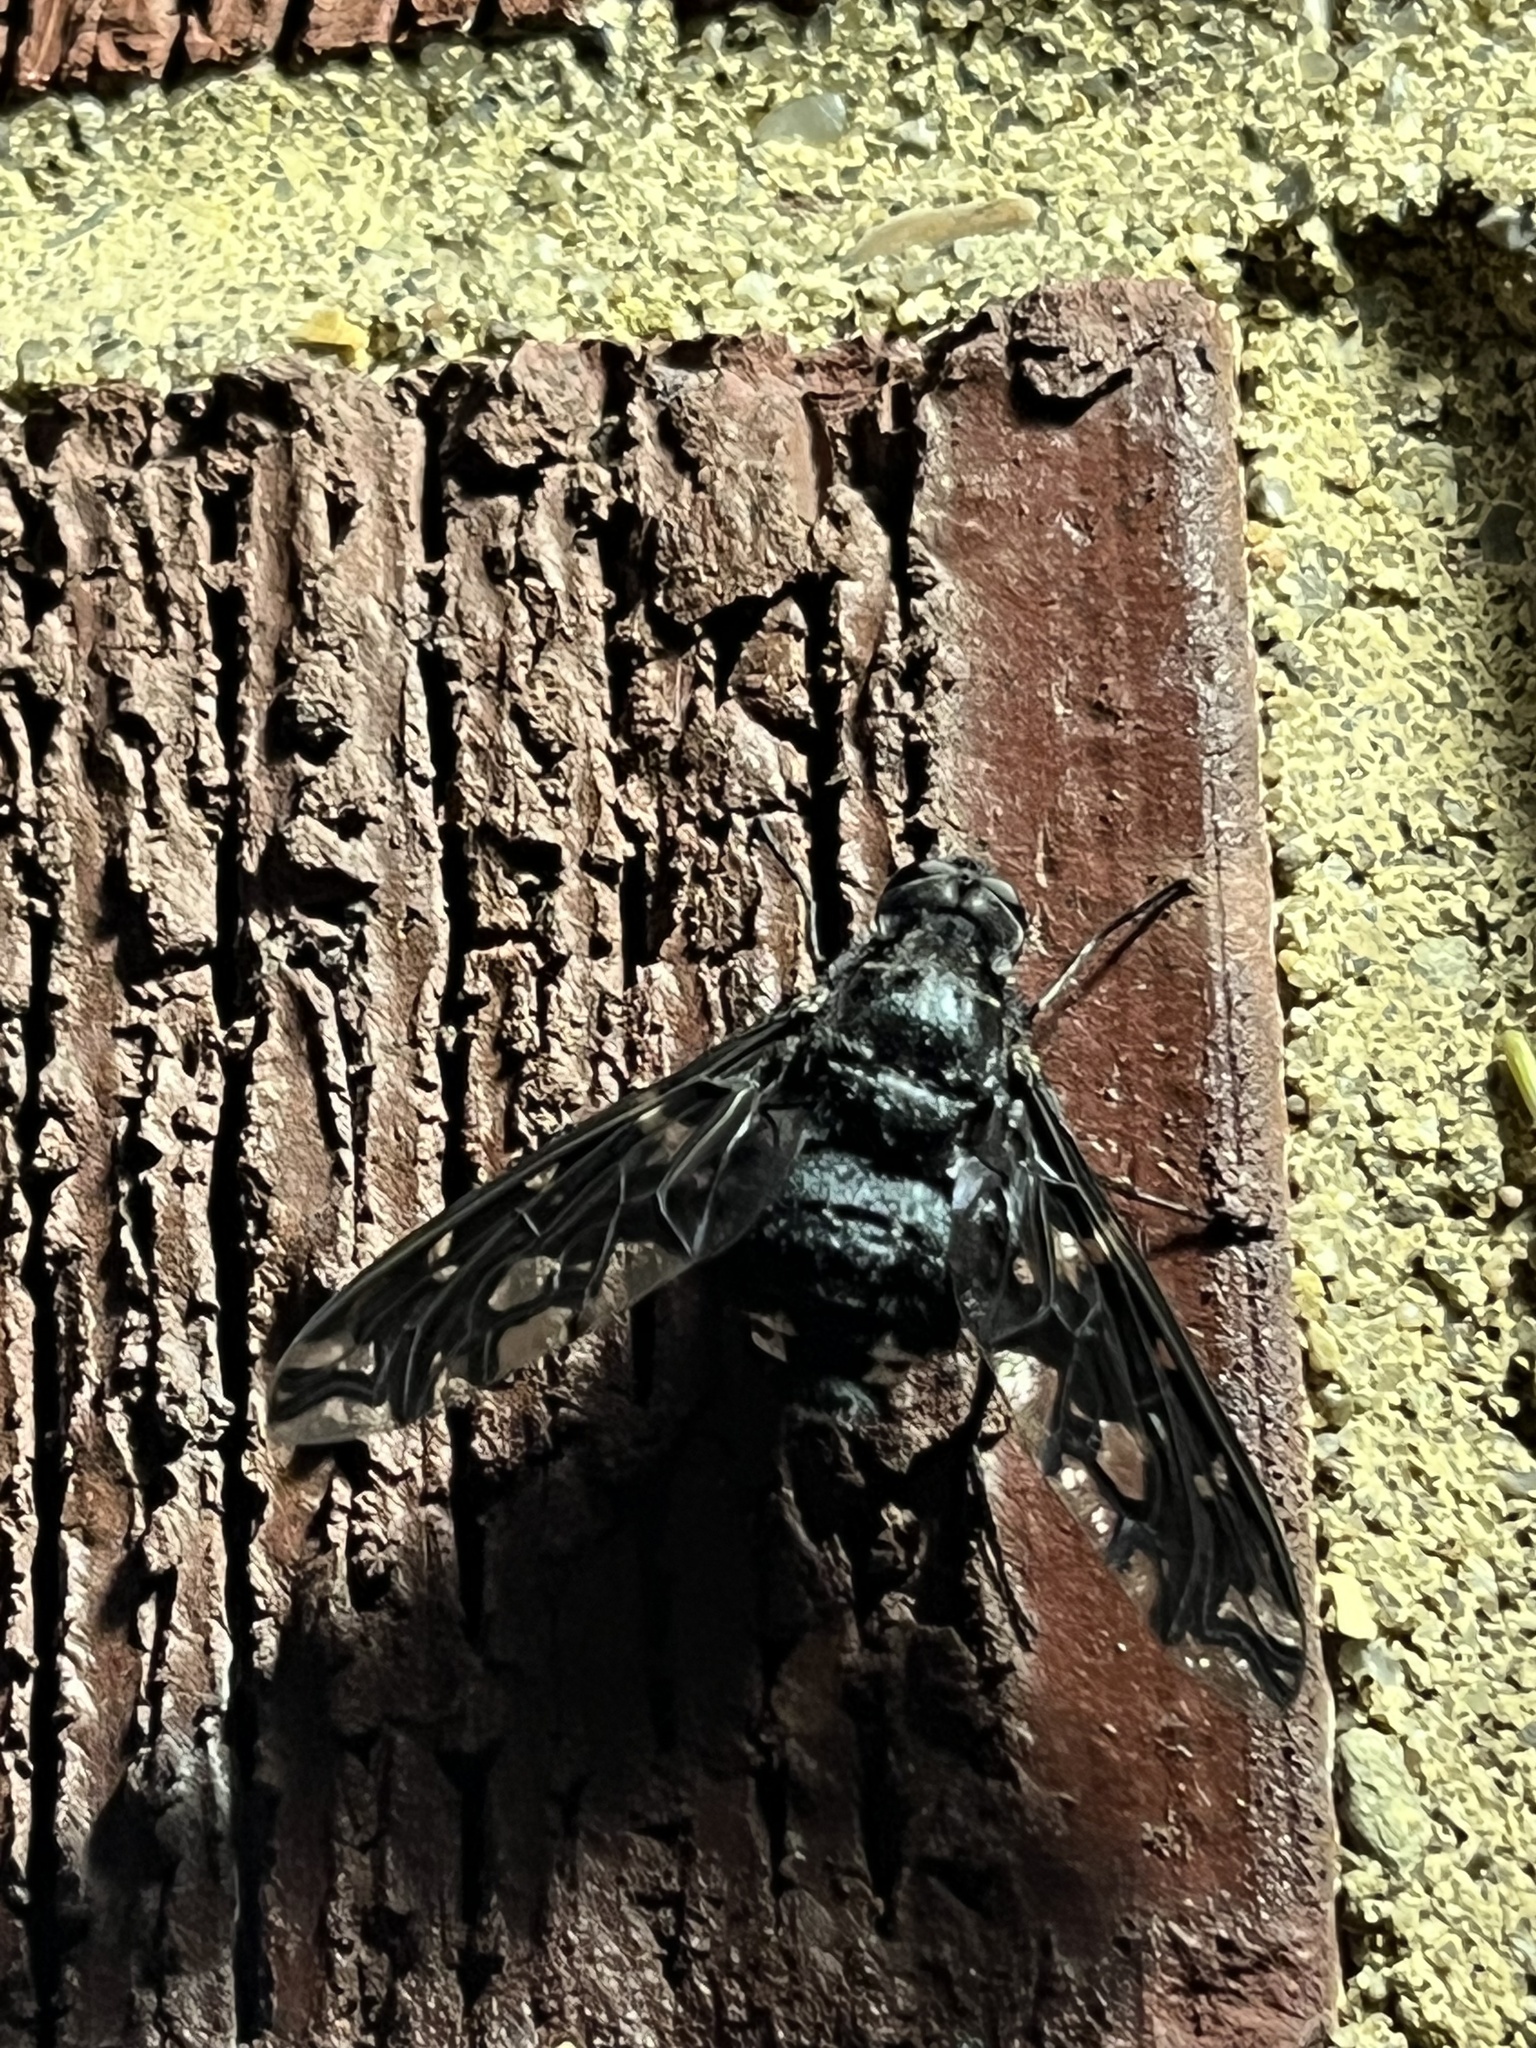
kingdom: Animalia
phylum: Arthropoda
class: Insecta
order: Diptera
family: Bombyliidae
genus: Xenox
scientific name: Xenox tigrinus
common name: Tiger bee fly
